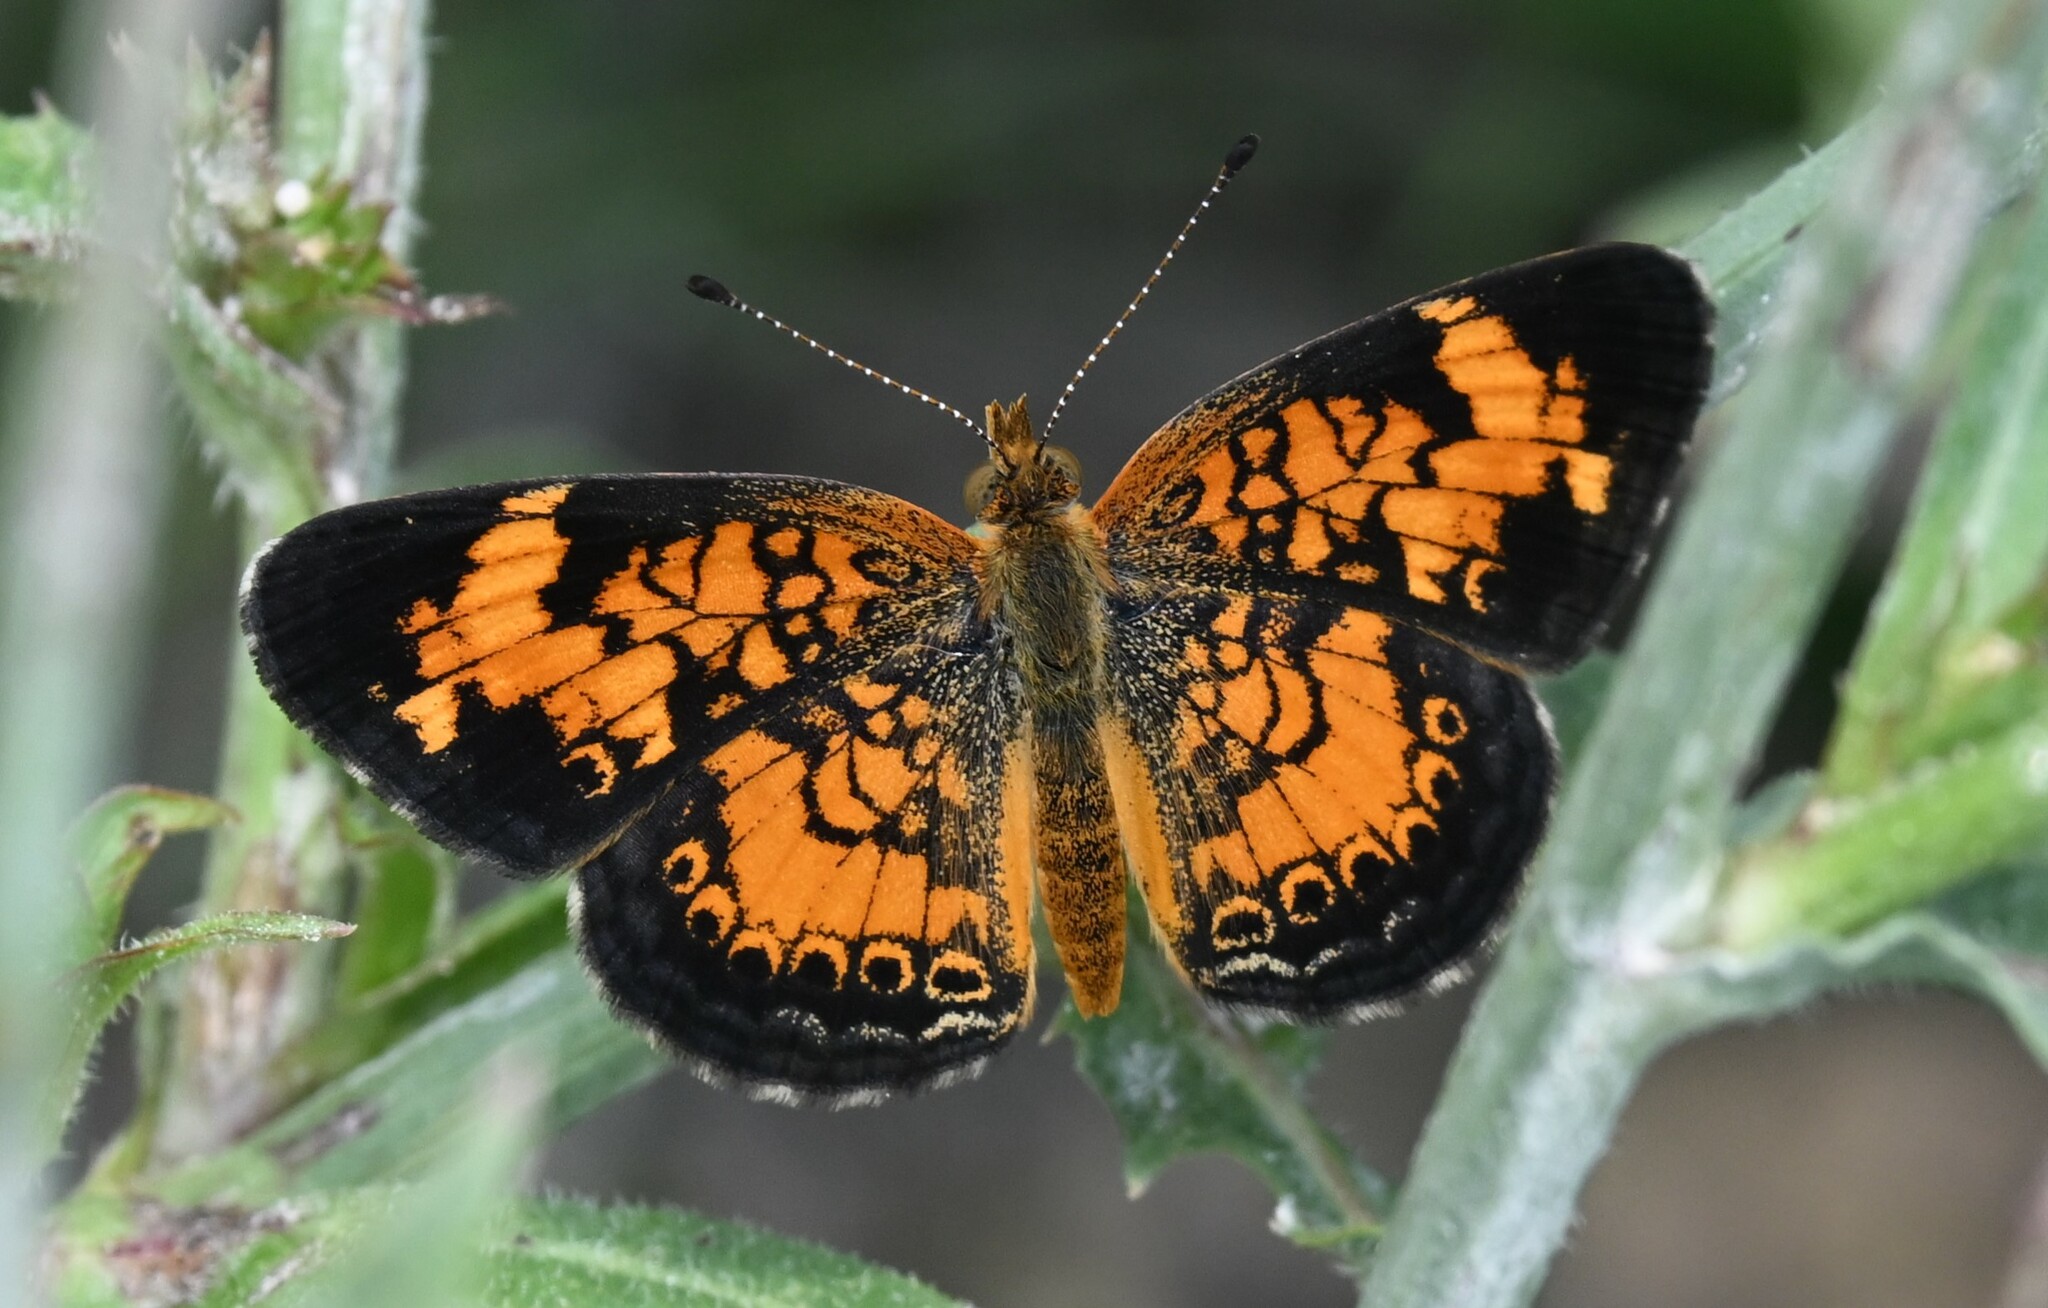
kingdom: Animalia
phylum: Arthropoda
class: Insecta
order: Lepidoptera
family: Nymphalidae
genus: Phyciodes
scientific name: Phyciodes tharos
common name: Pearl crescent
